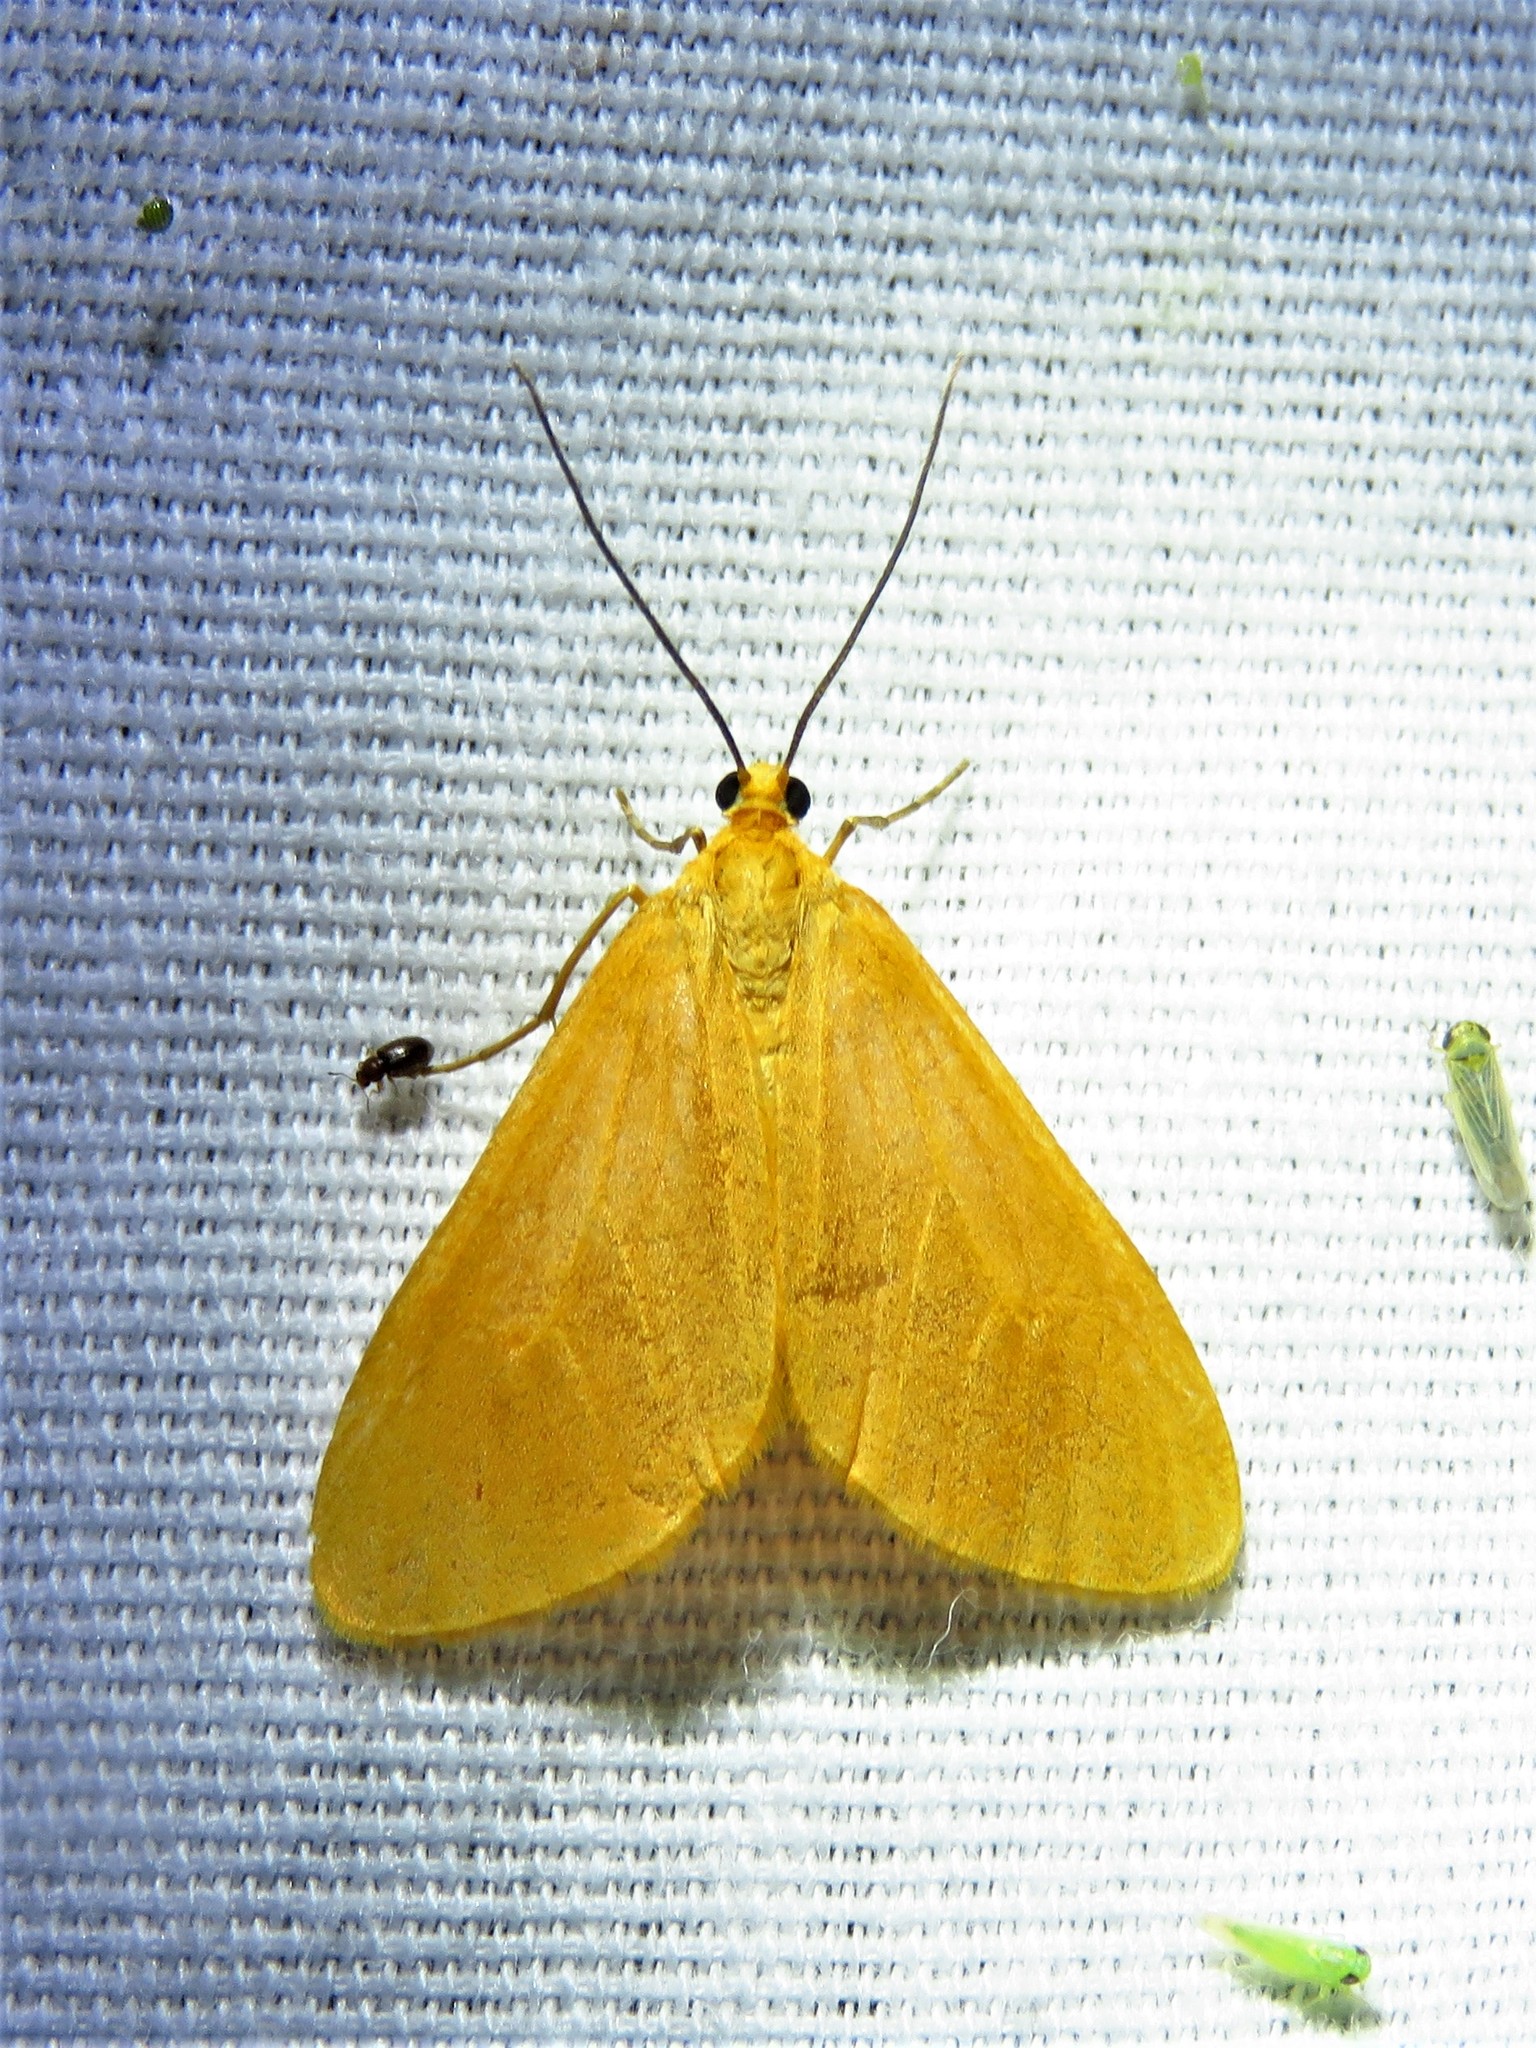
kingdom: Animalia
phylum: Arthropoda
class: Insecta
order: Lepidoptera
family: Geometridae
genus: Eubaphe
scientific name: Eubaphe unicolor
